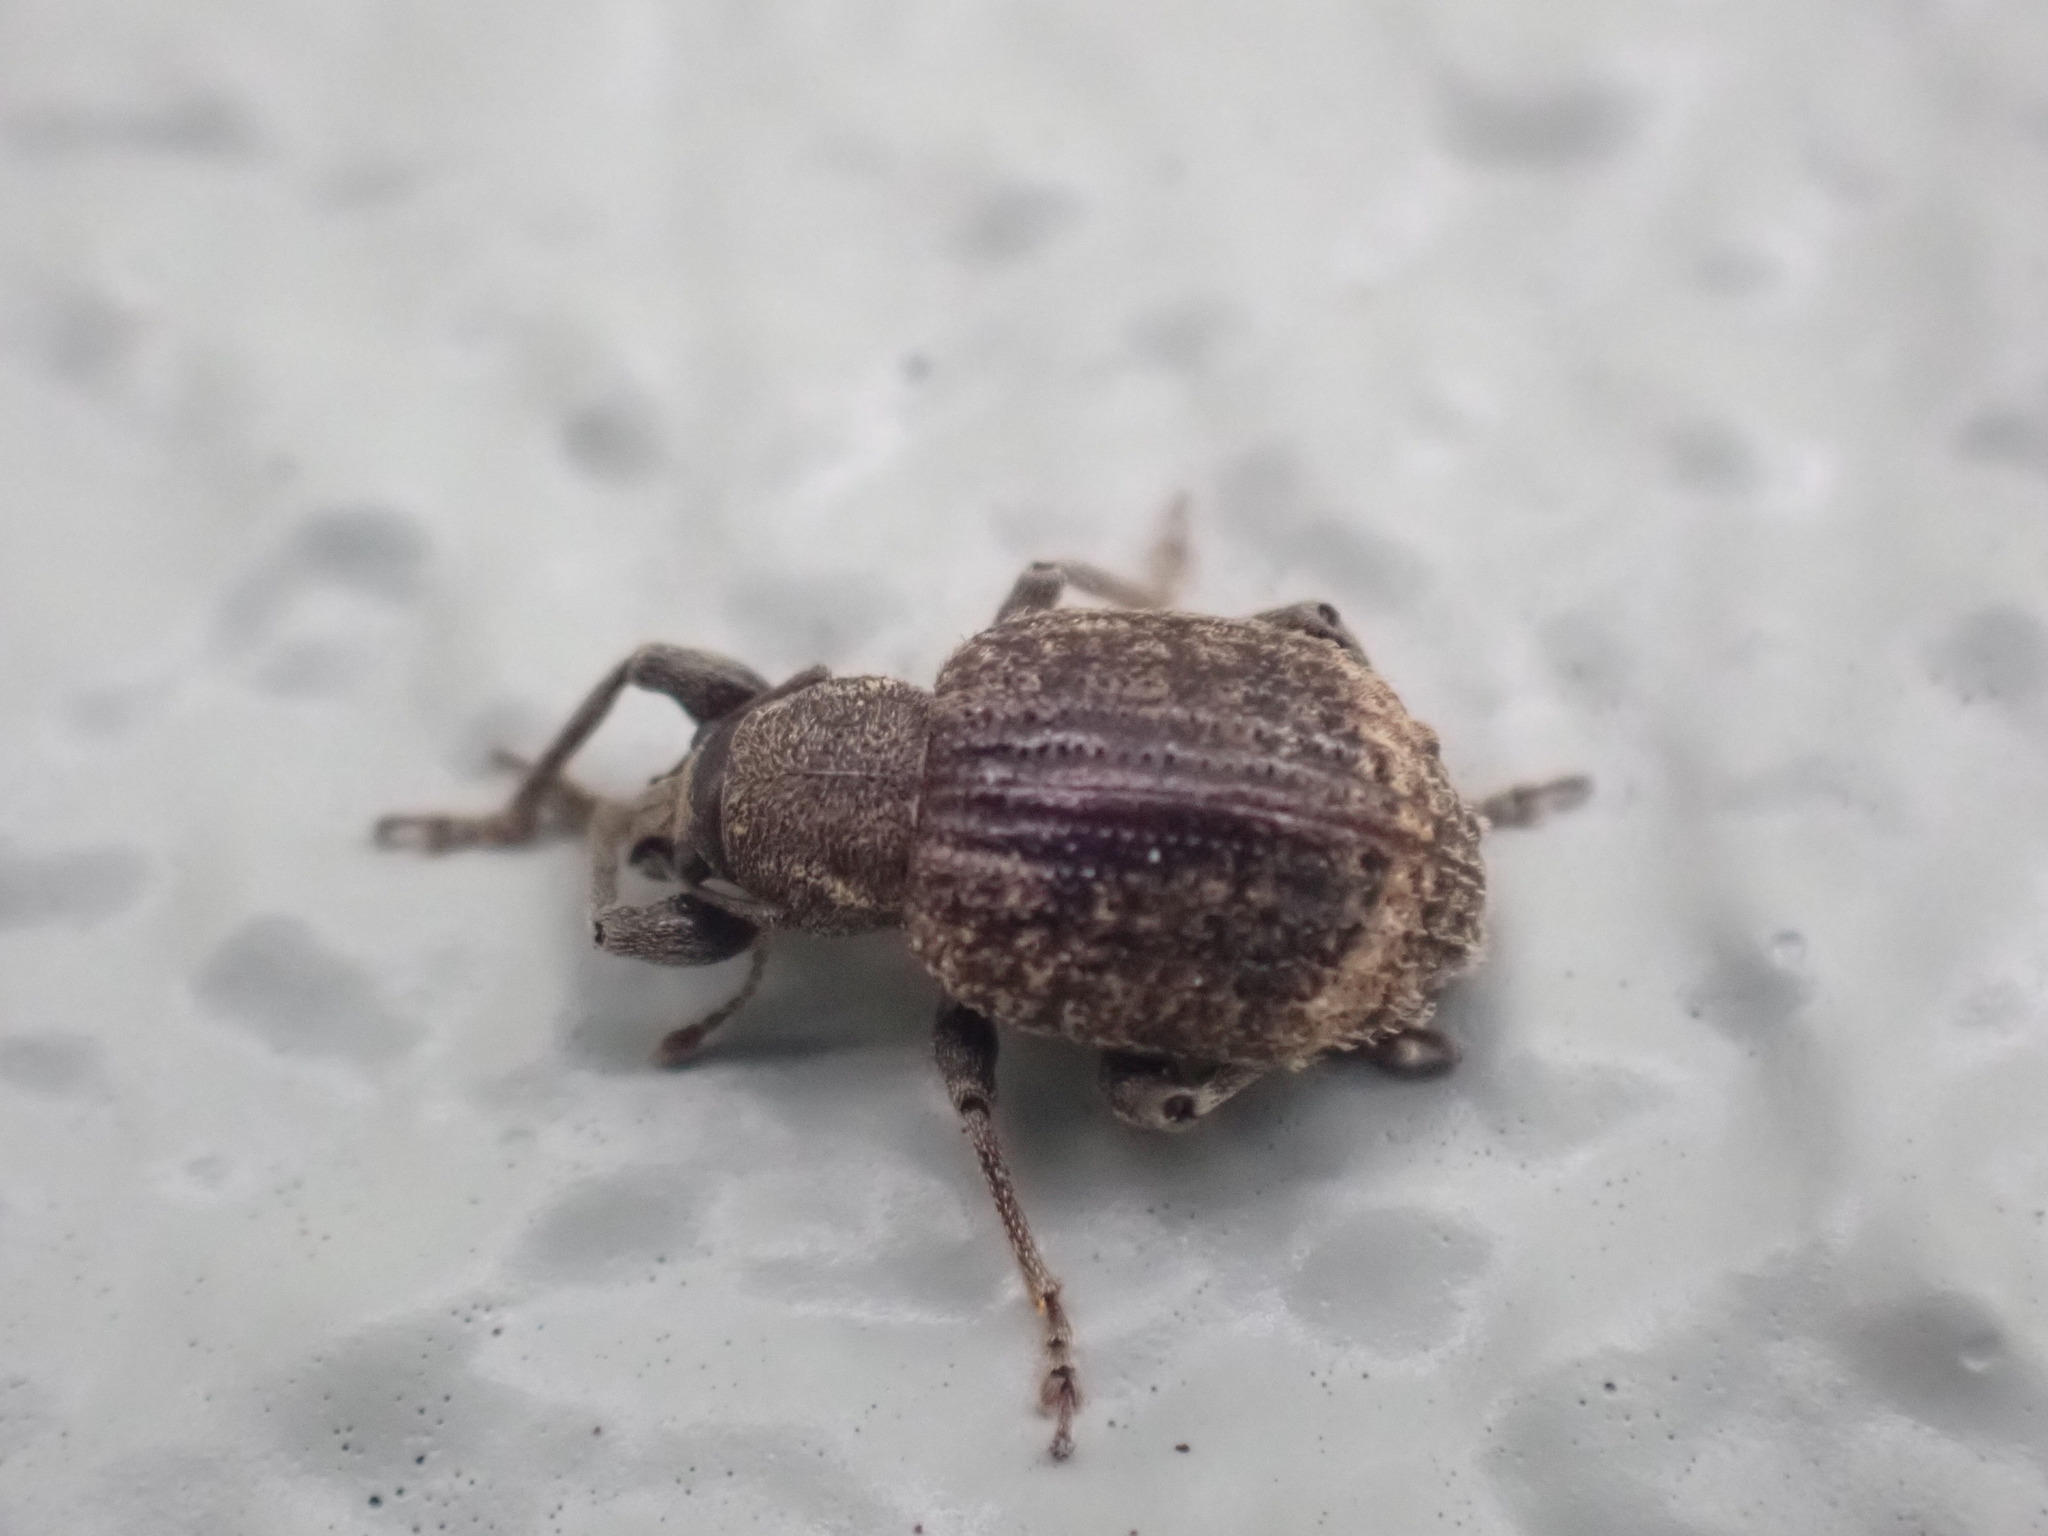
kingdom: Animalia
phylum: Arthropoda
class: Insecta
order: Coleoptera
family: Curculionidae
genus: Phlyctinus
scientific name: Phlyctinus callosus
